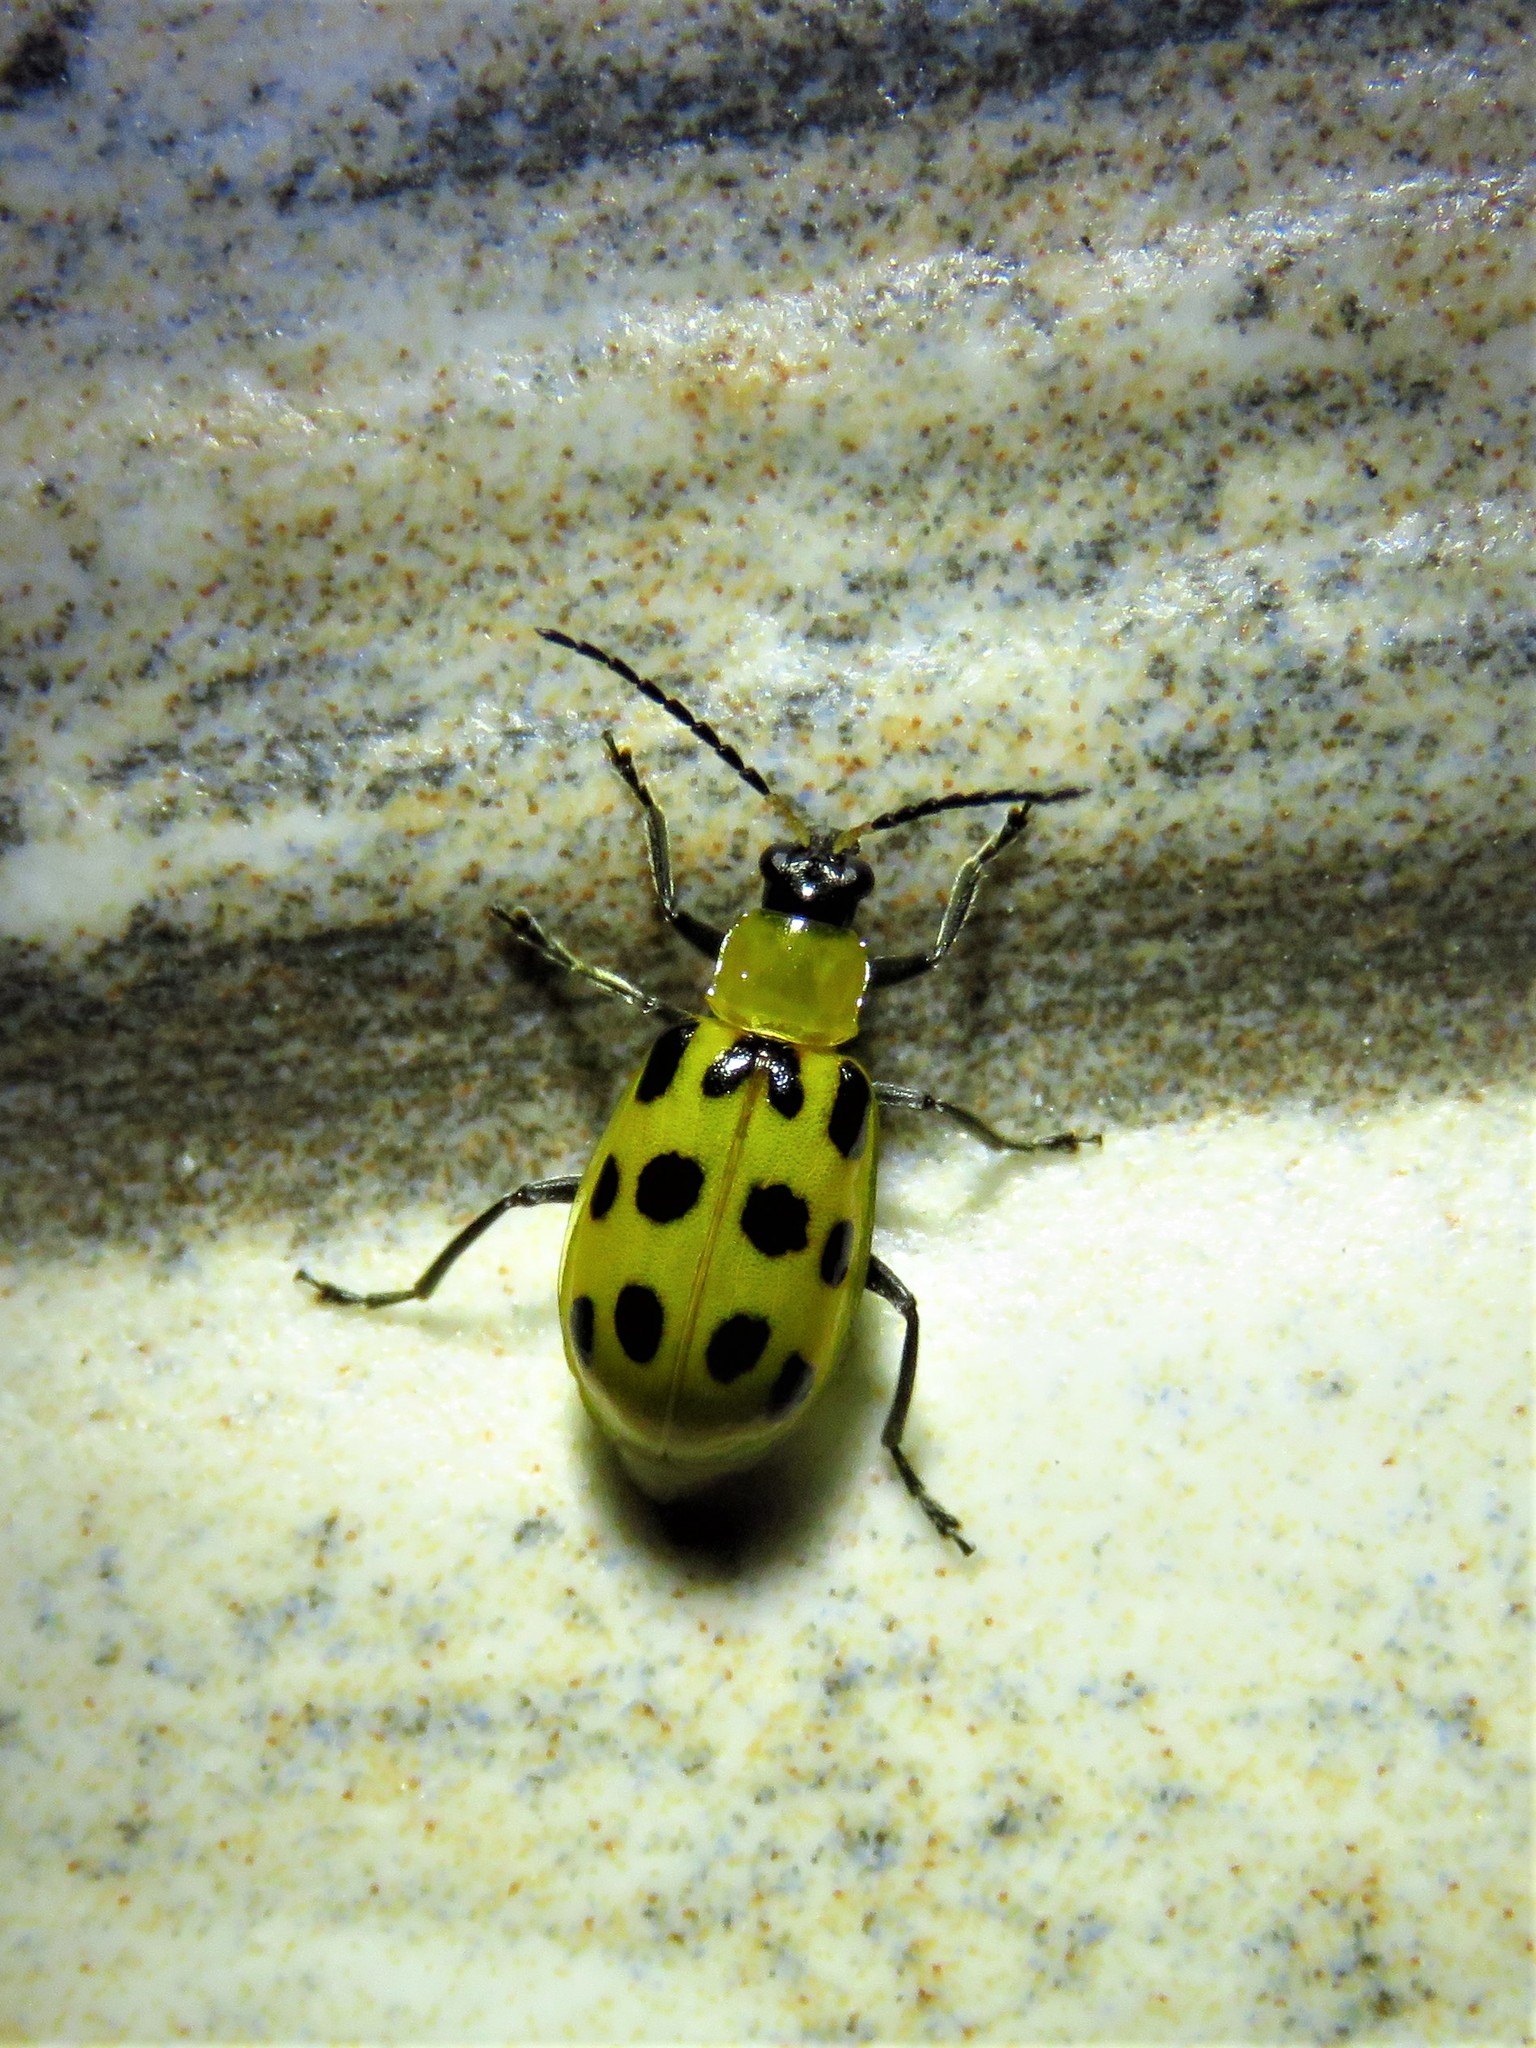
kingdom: Animalia
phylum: Arthropoda
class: Insecta
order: Coleoptera
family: Chrysomelidae
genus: Diabrotica
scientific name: Diabrotica undecimpunctata
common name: Spotted cucumber beetle
